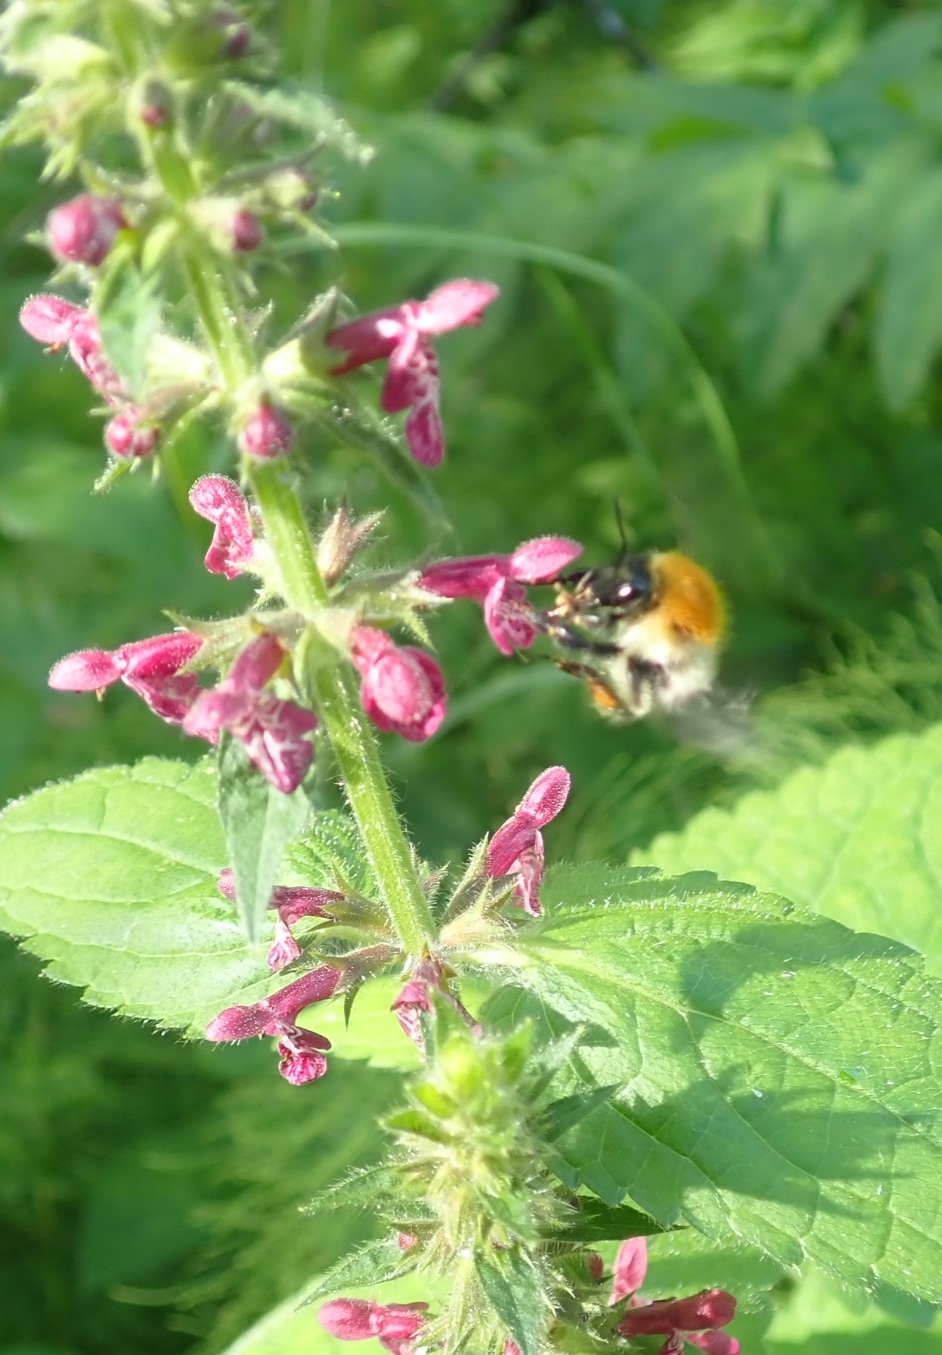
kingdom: Animalia
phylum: Arthropoda
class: Insecta
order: Hymenoptera
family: Apidae
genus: Bombus
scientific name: Bombus pascuorum
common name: Common carder bee
